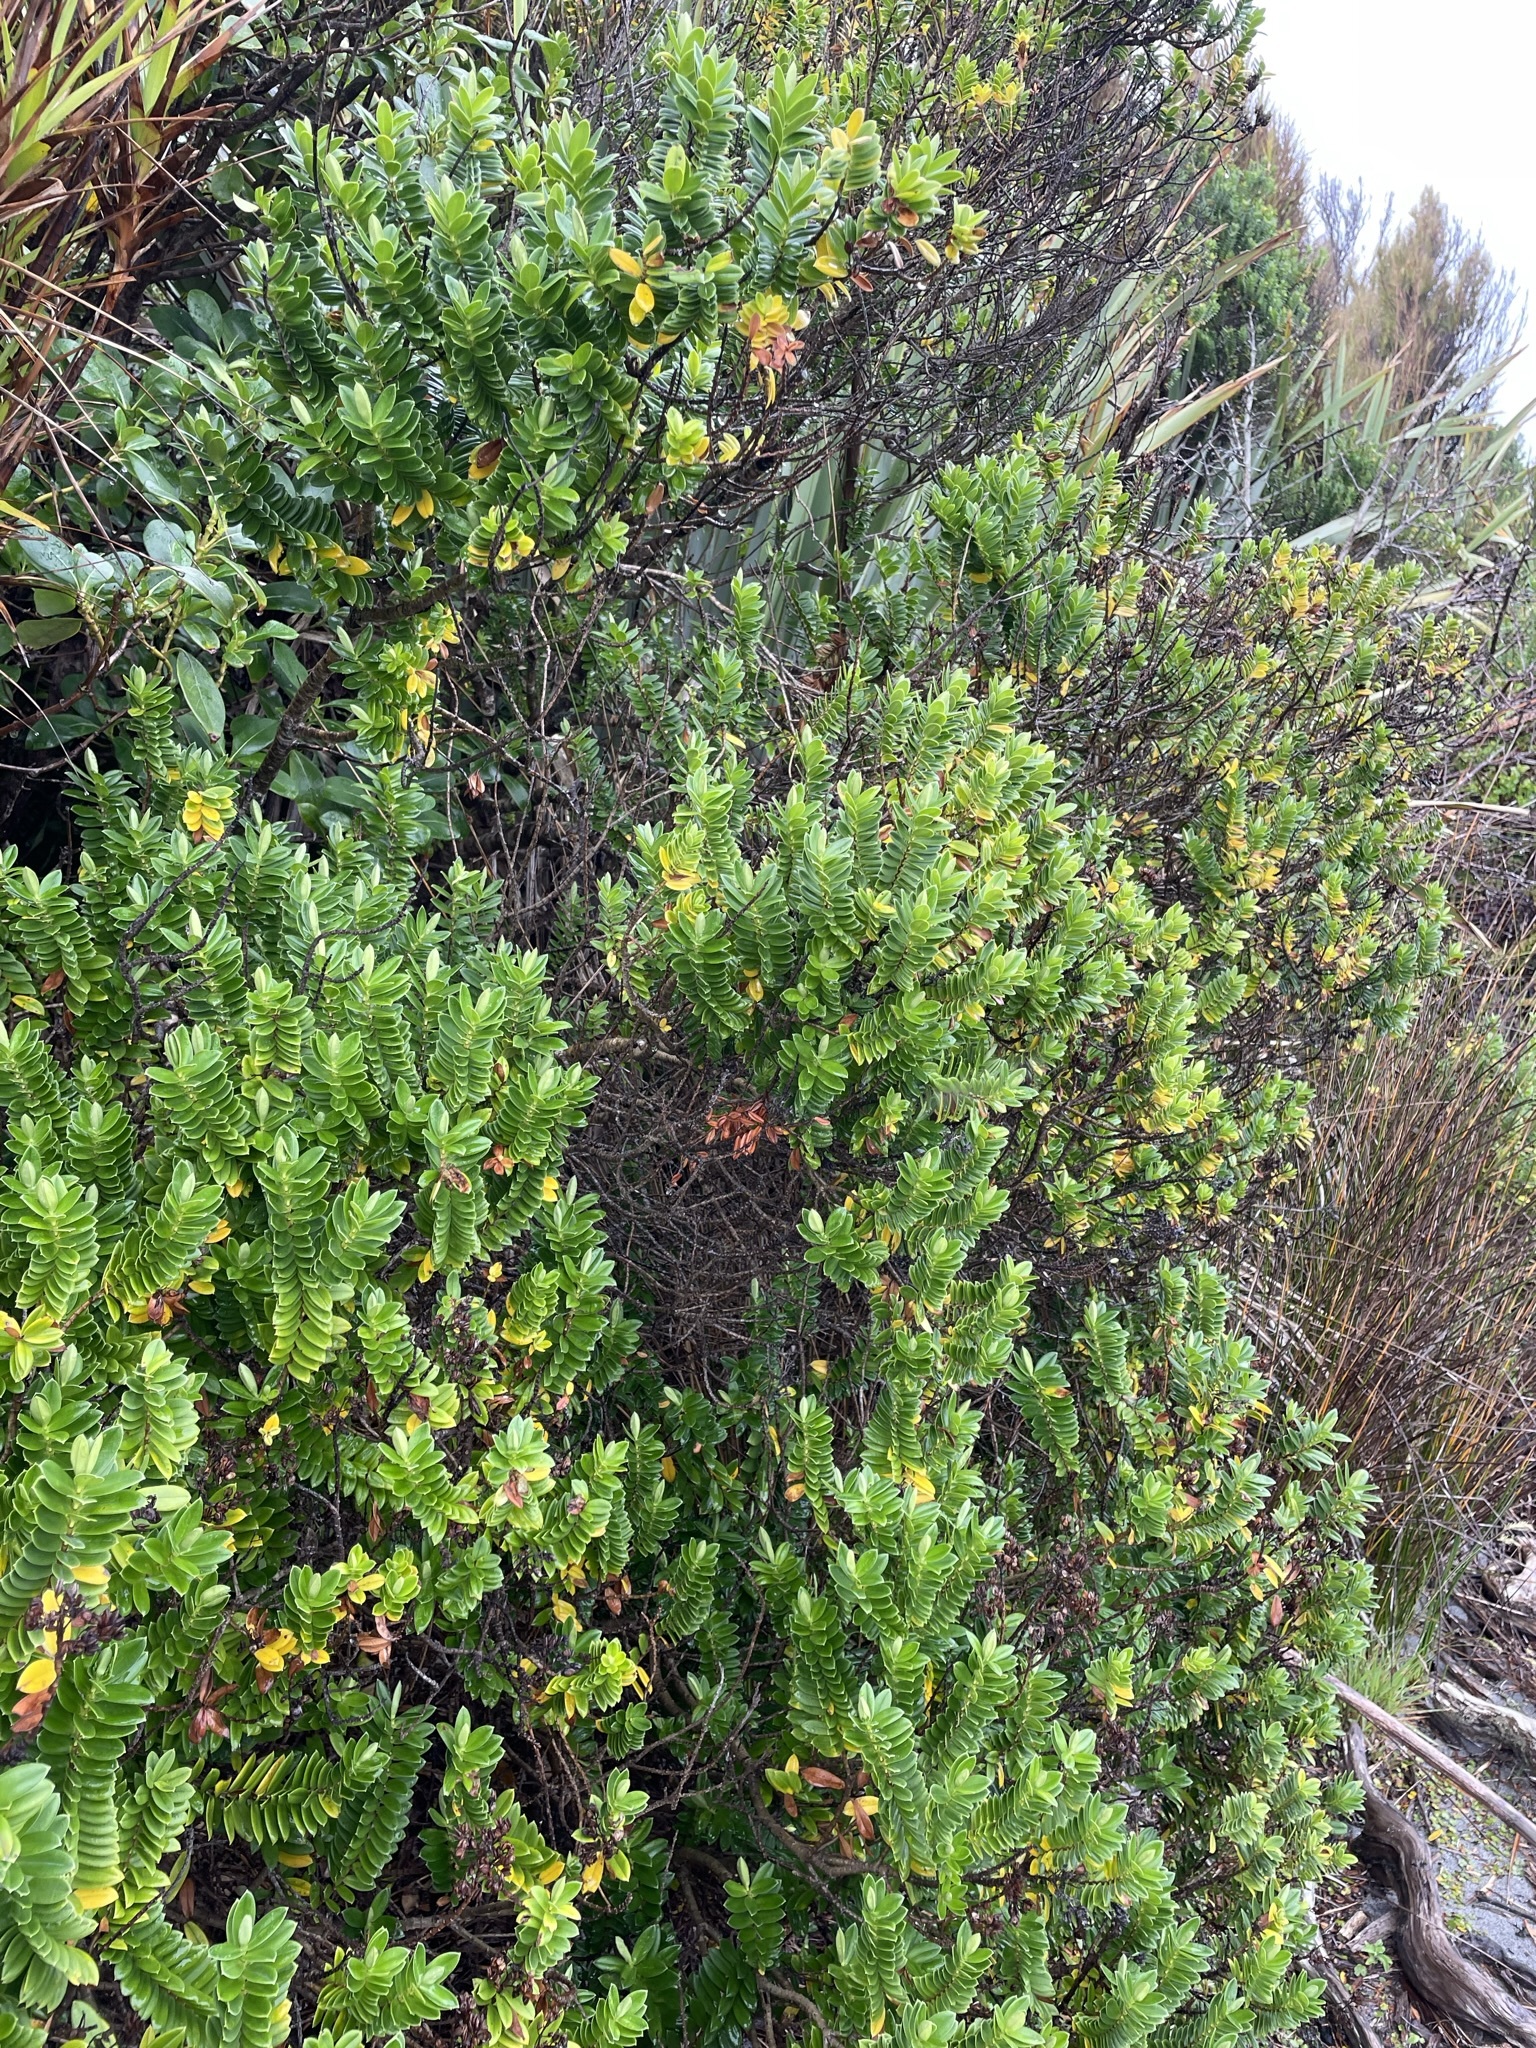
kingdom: Plantae
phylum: Tracheophyta
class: Magnoliopsida
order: Lamiales
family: Plantaginaceae
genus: Veronica
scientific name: Veronica elliptica
